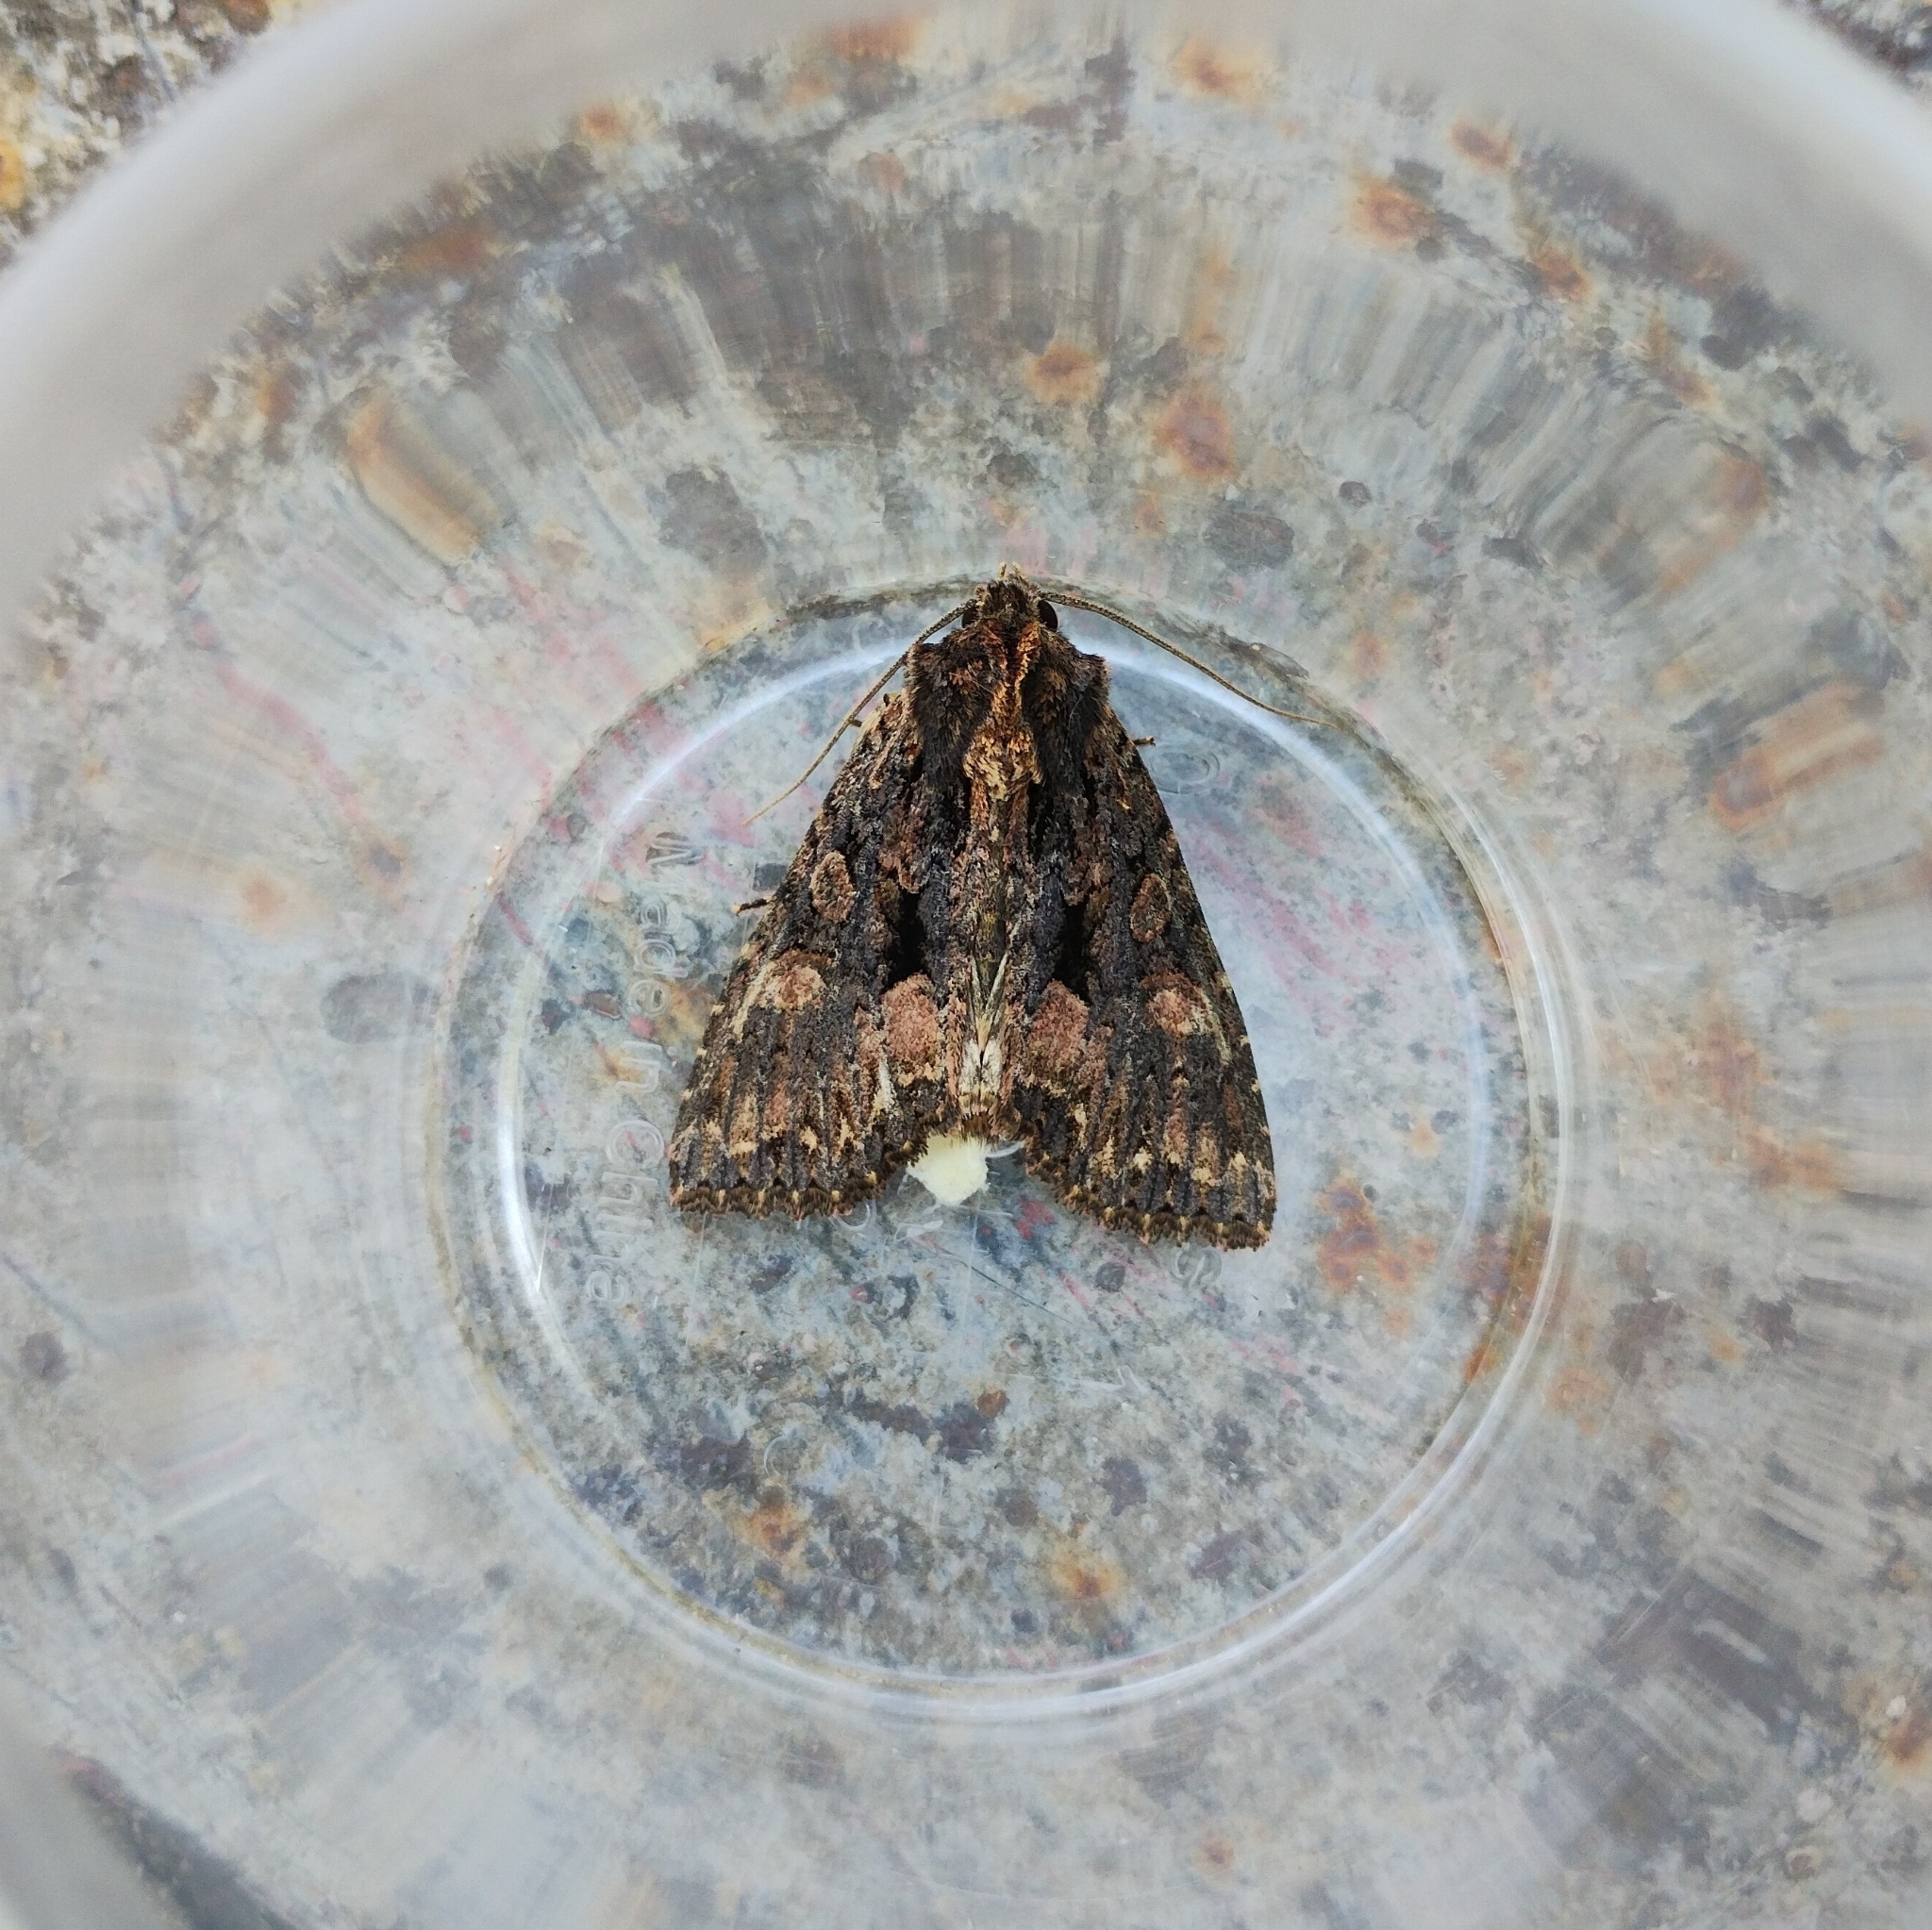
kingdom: Animalia
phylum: Arthropoda
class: Insecta
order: Lepidoptera
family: Noctuidae
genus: Mniotype
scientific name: Mniotype satura
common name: Beautiful arches
